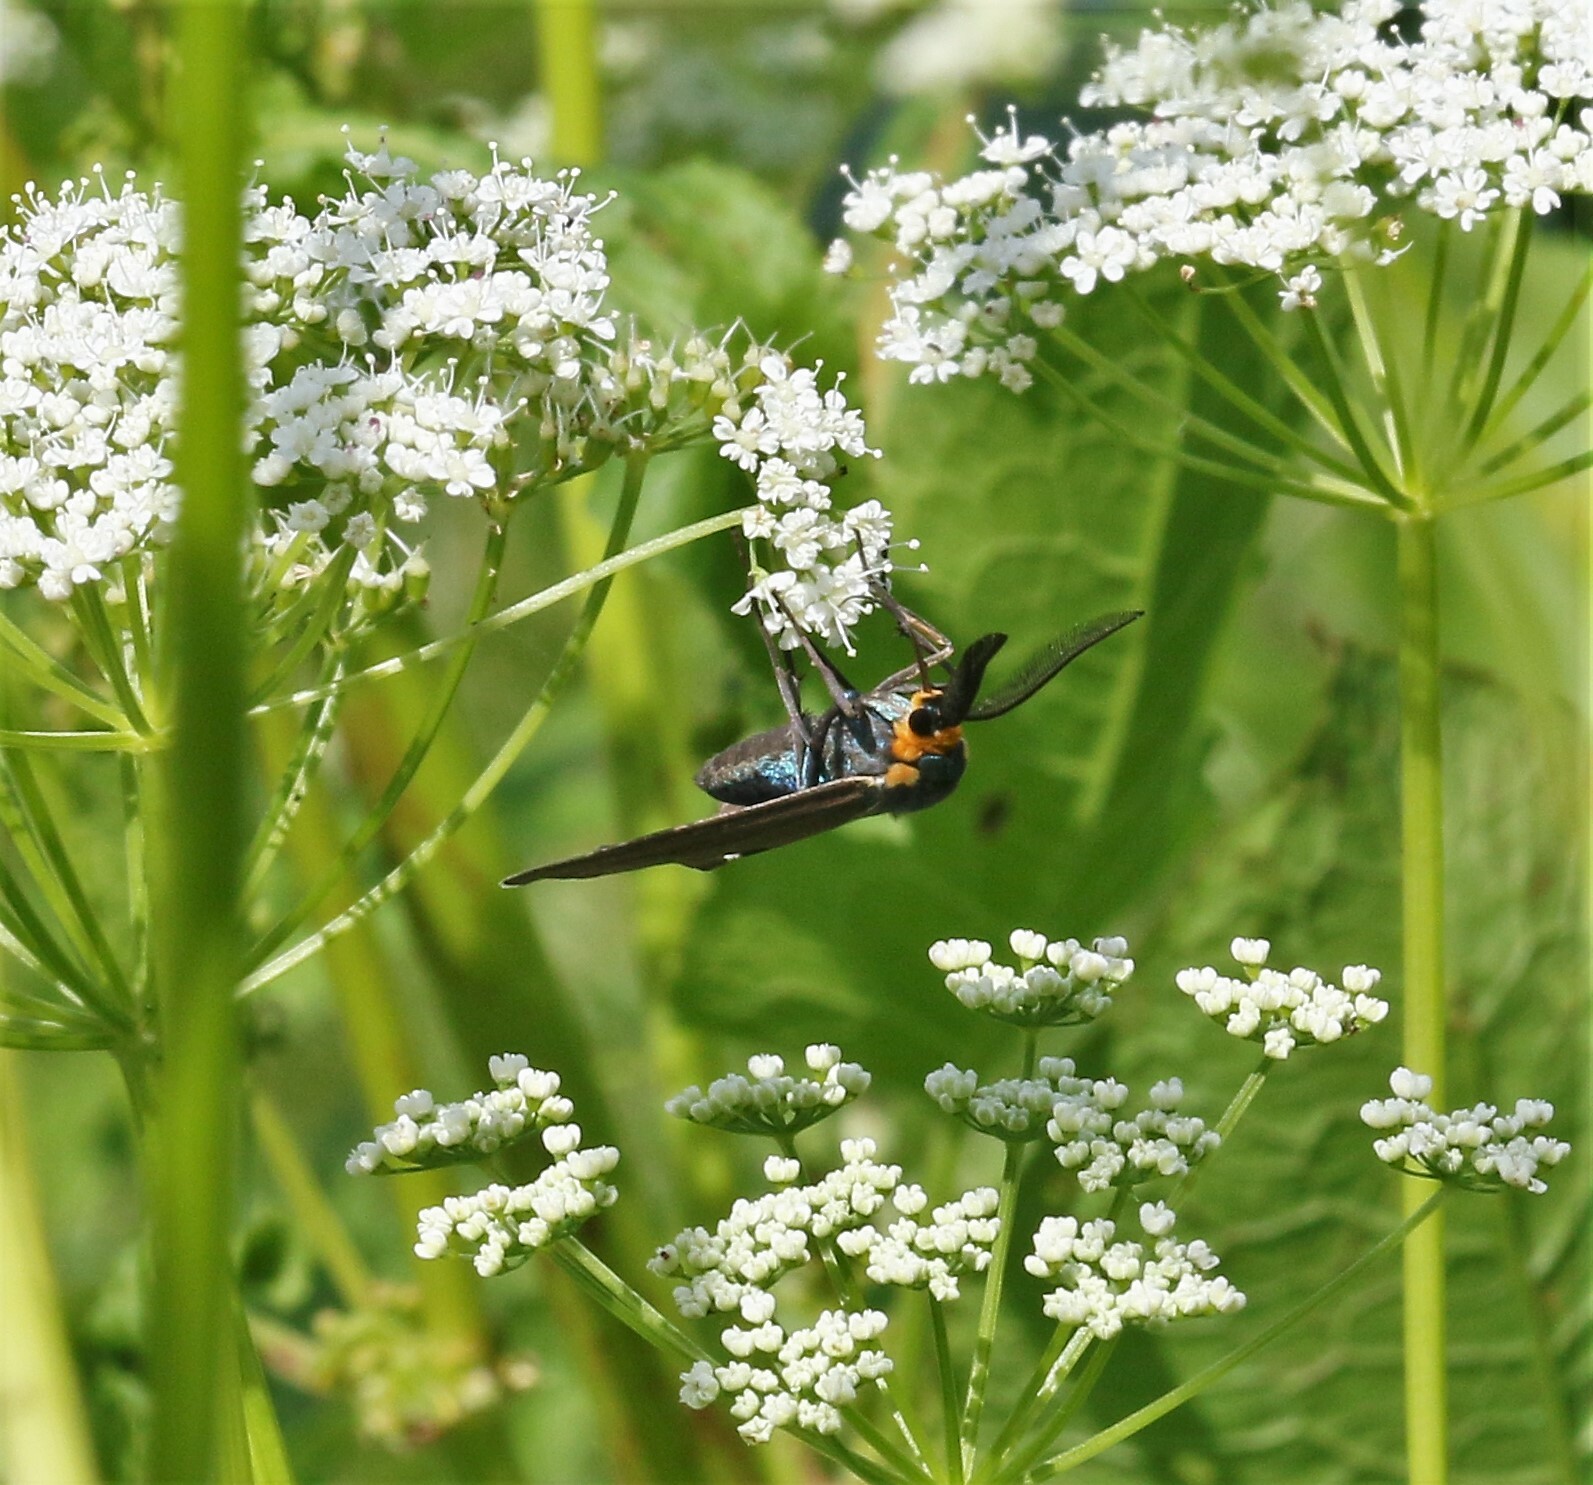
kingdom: Animalia
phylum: Arthropoda
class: Insecta
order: Lepidoptera
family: Erebidae
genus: Ctenucha
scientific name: Ctenucha virginica
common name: Virginia ctenucha moth
